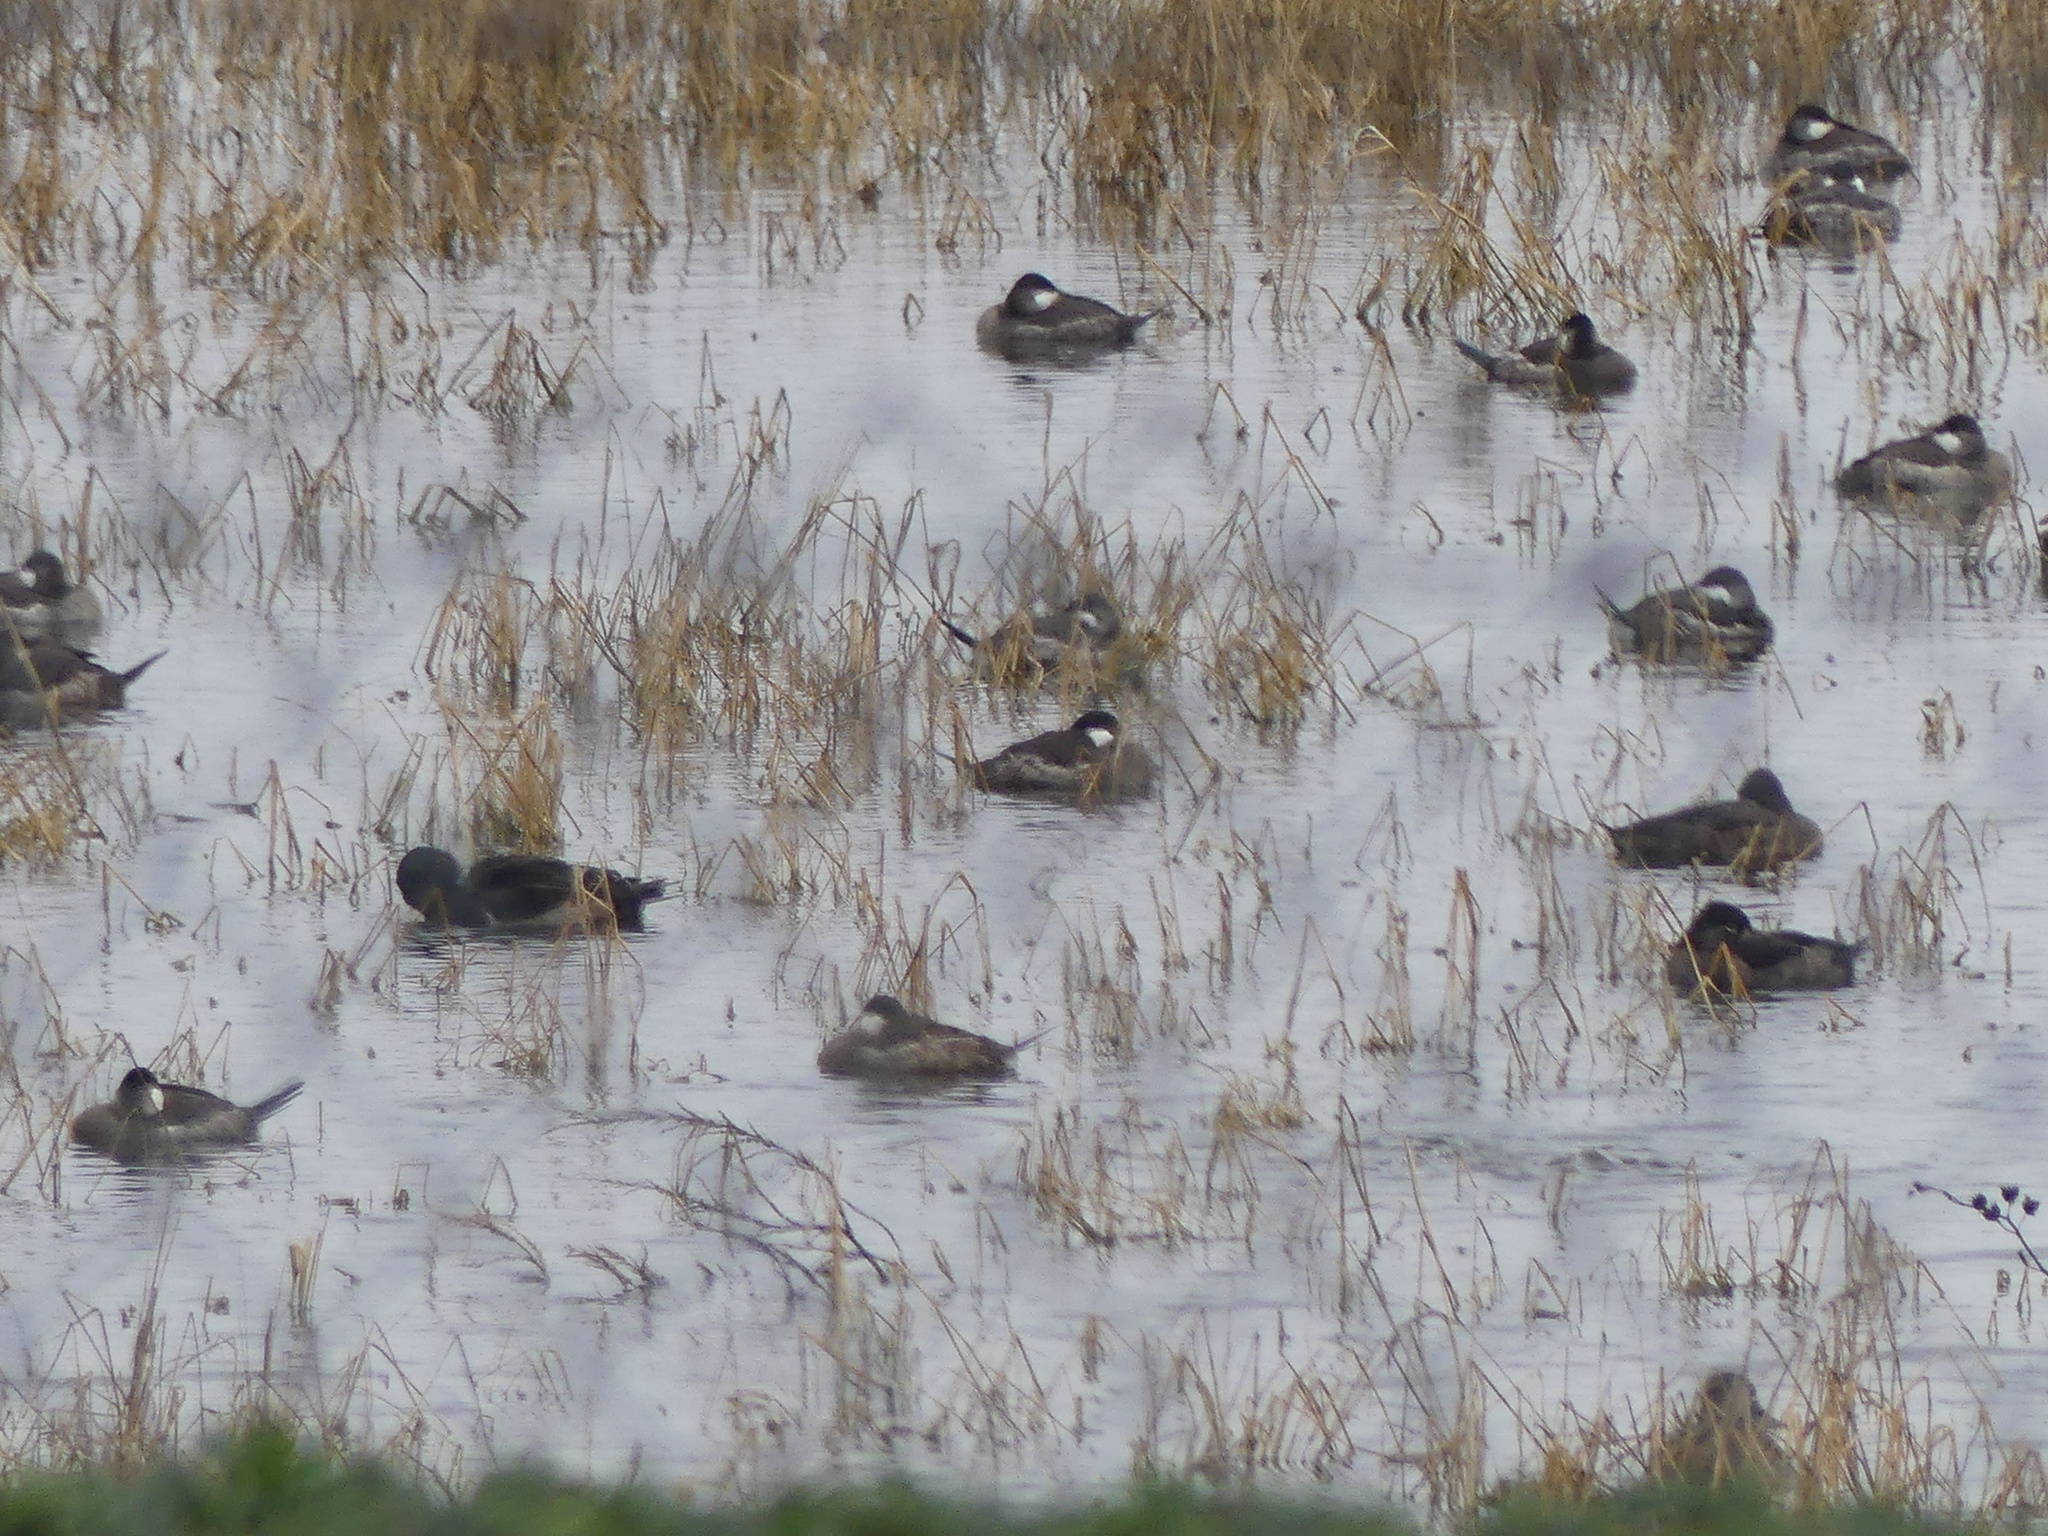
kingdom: Animalia
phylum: Chordata
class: Aves
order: Anseriformes
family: Anatidae
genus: Oxyura
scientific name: Oxyura jamaicensis
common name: Ruddy duck
